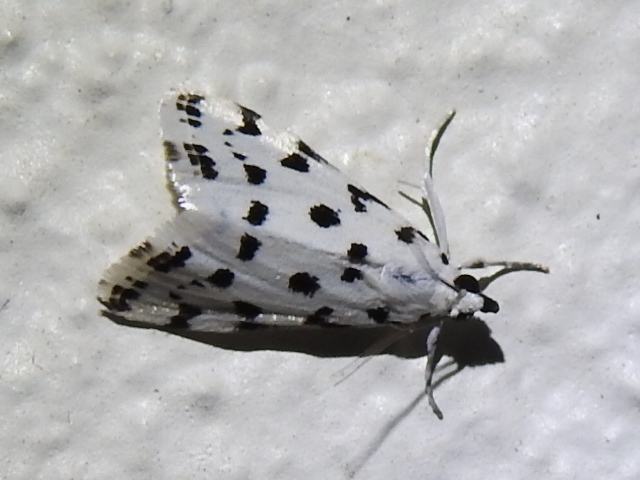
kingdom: Animalia
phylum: Arthropoda
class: Insecta
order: Lepidoptera
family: Crambidae
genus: Eustixia
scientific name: Eustixia pupula
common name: American cabbage pearl
